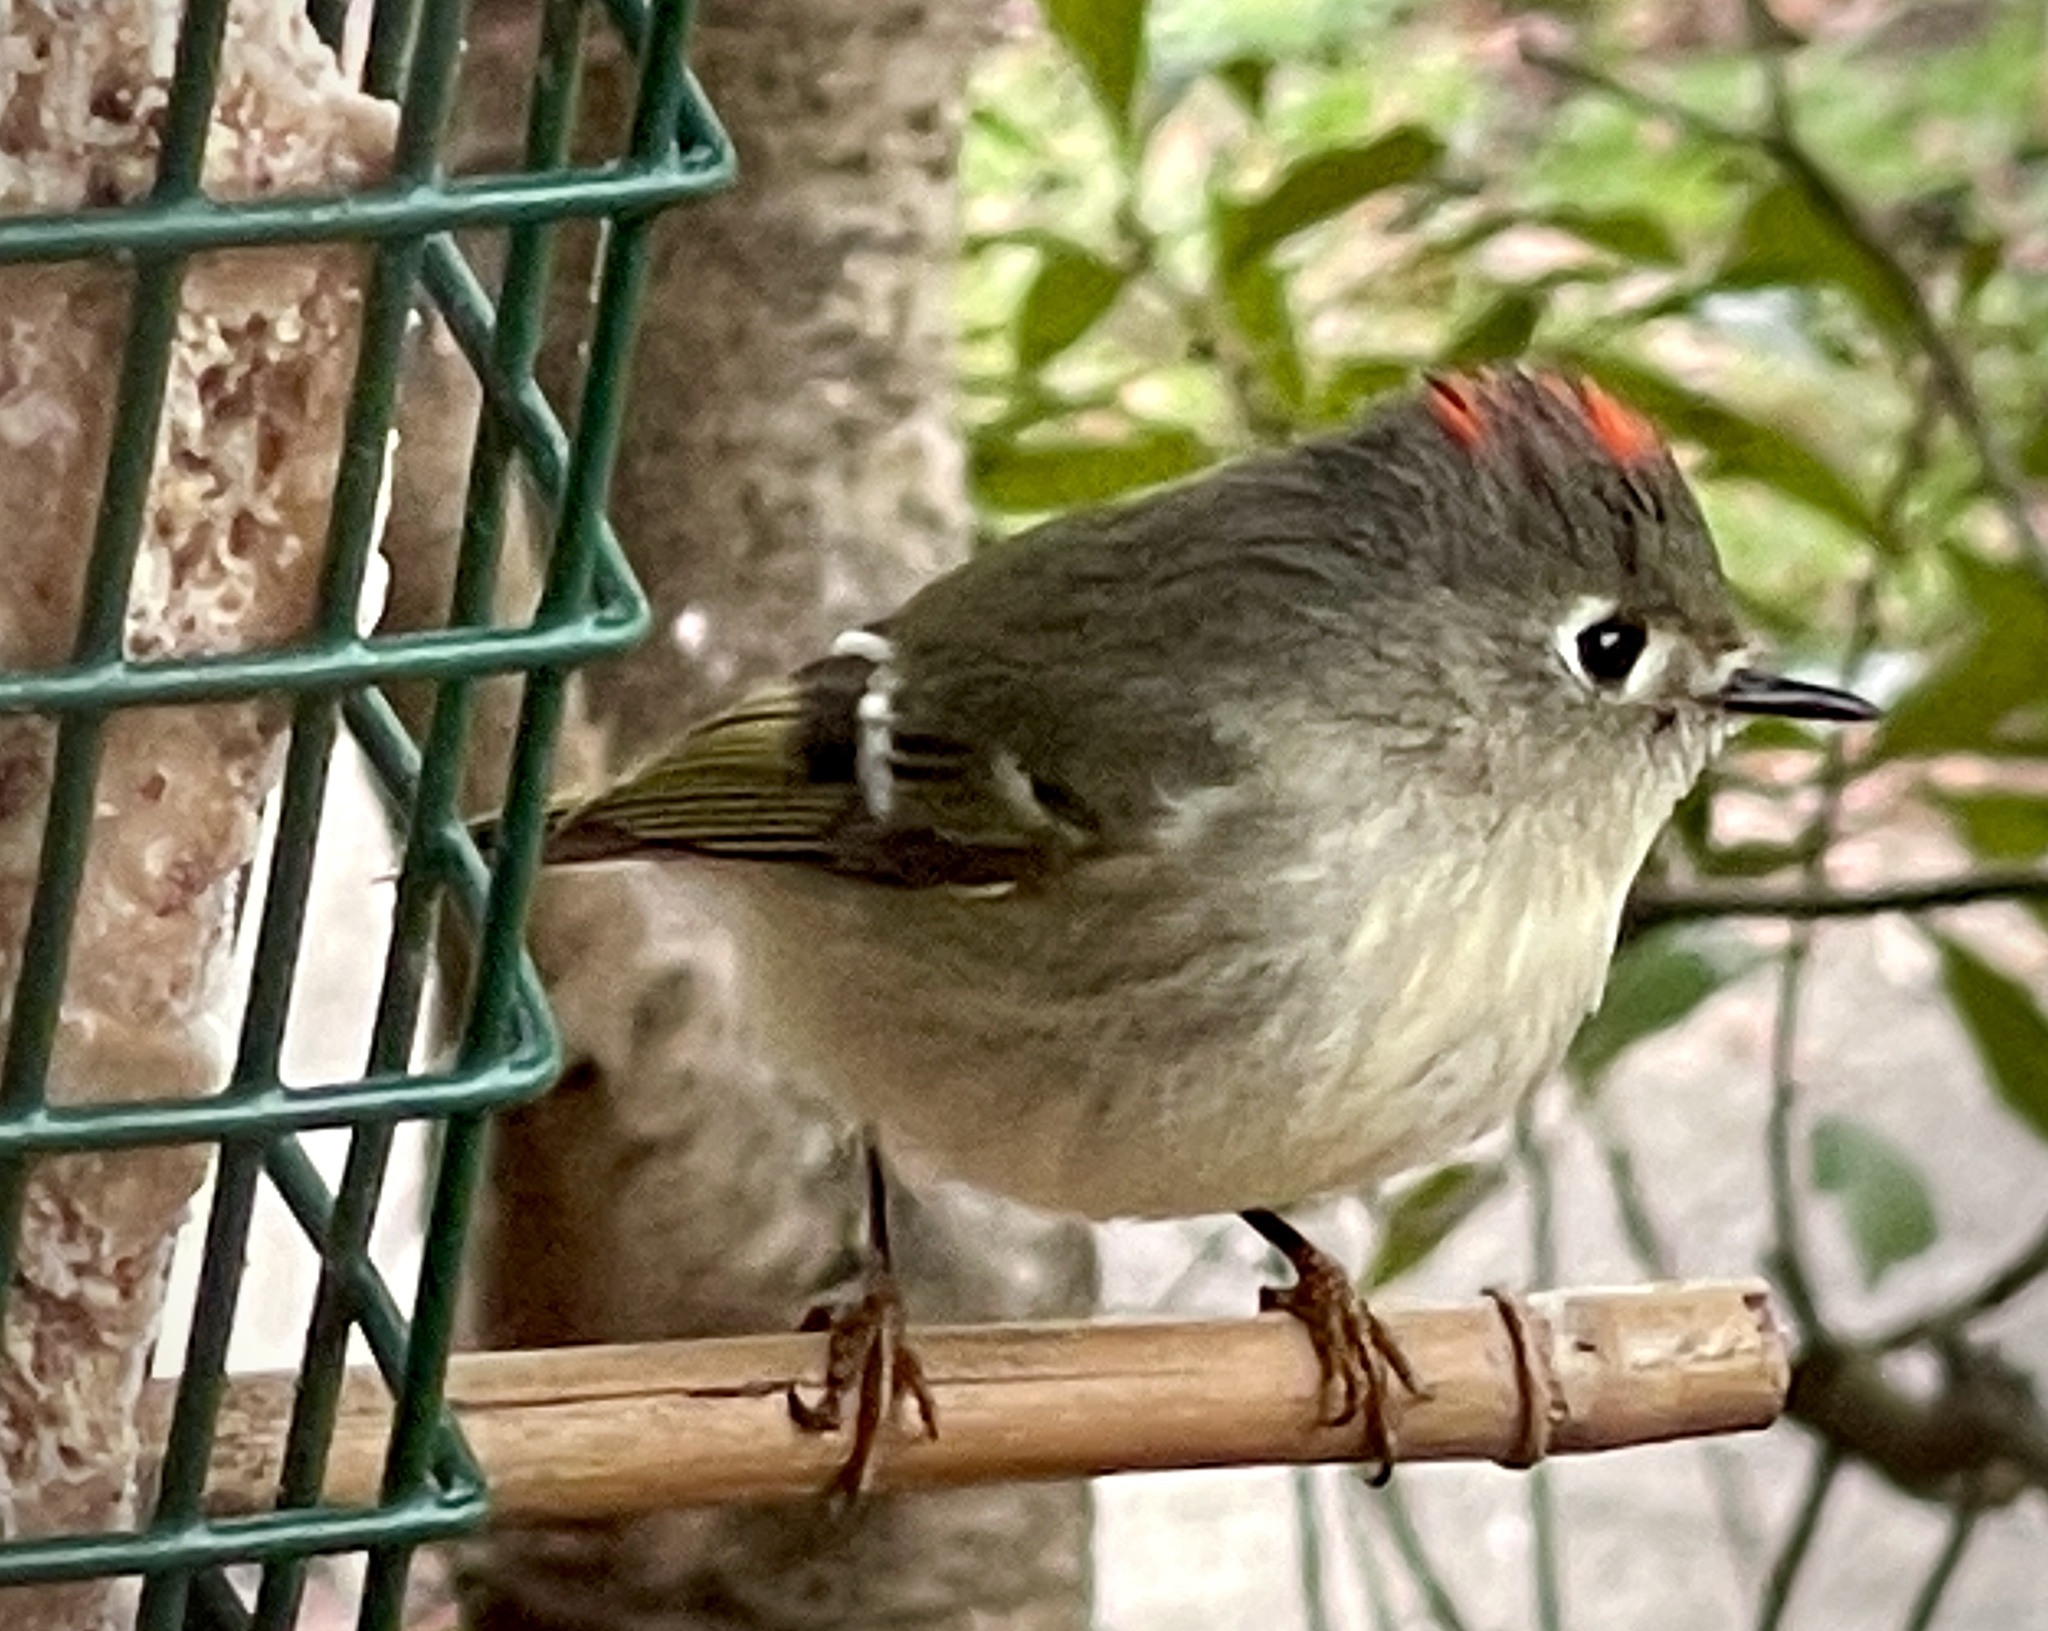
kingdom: Animalia
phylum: Chordata
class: Aves
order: Passeriformes
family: Regulidae
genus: Regulus
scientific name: Regulus calendula
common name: Ruby-crowned kinglet
